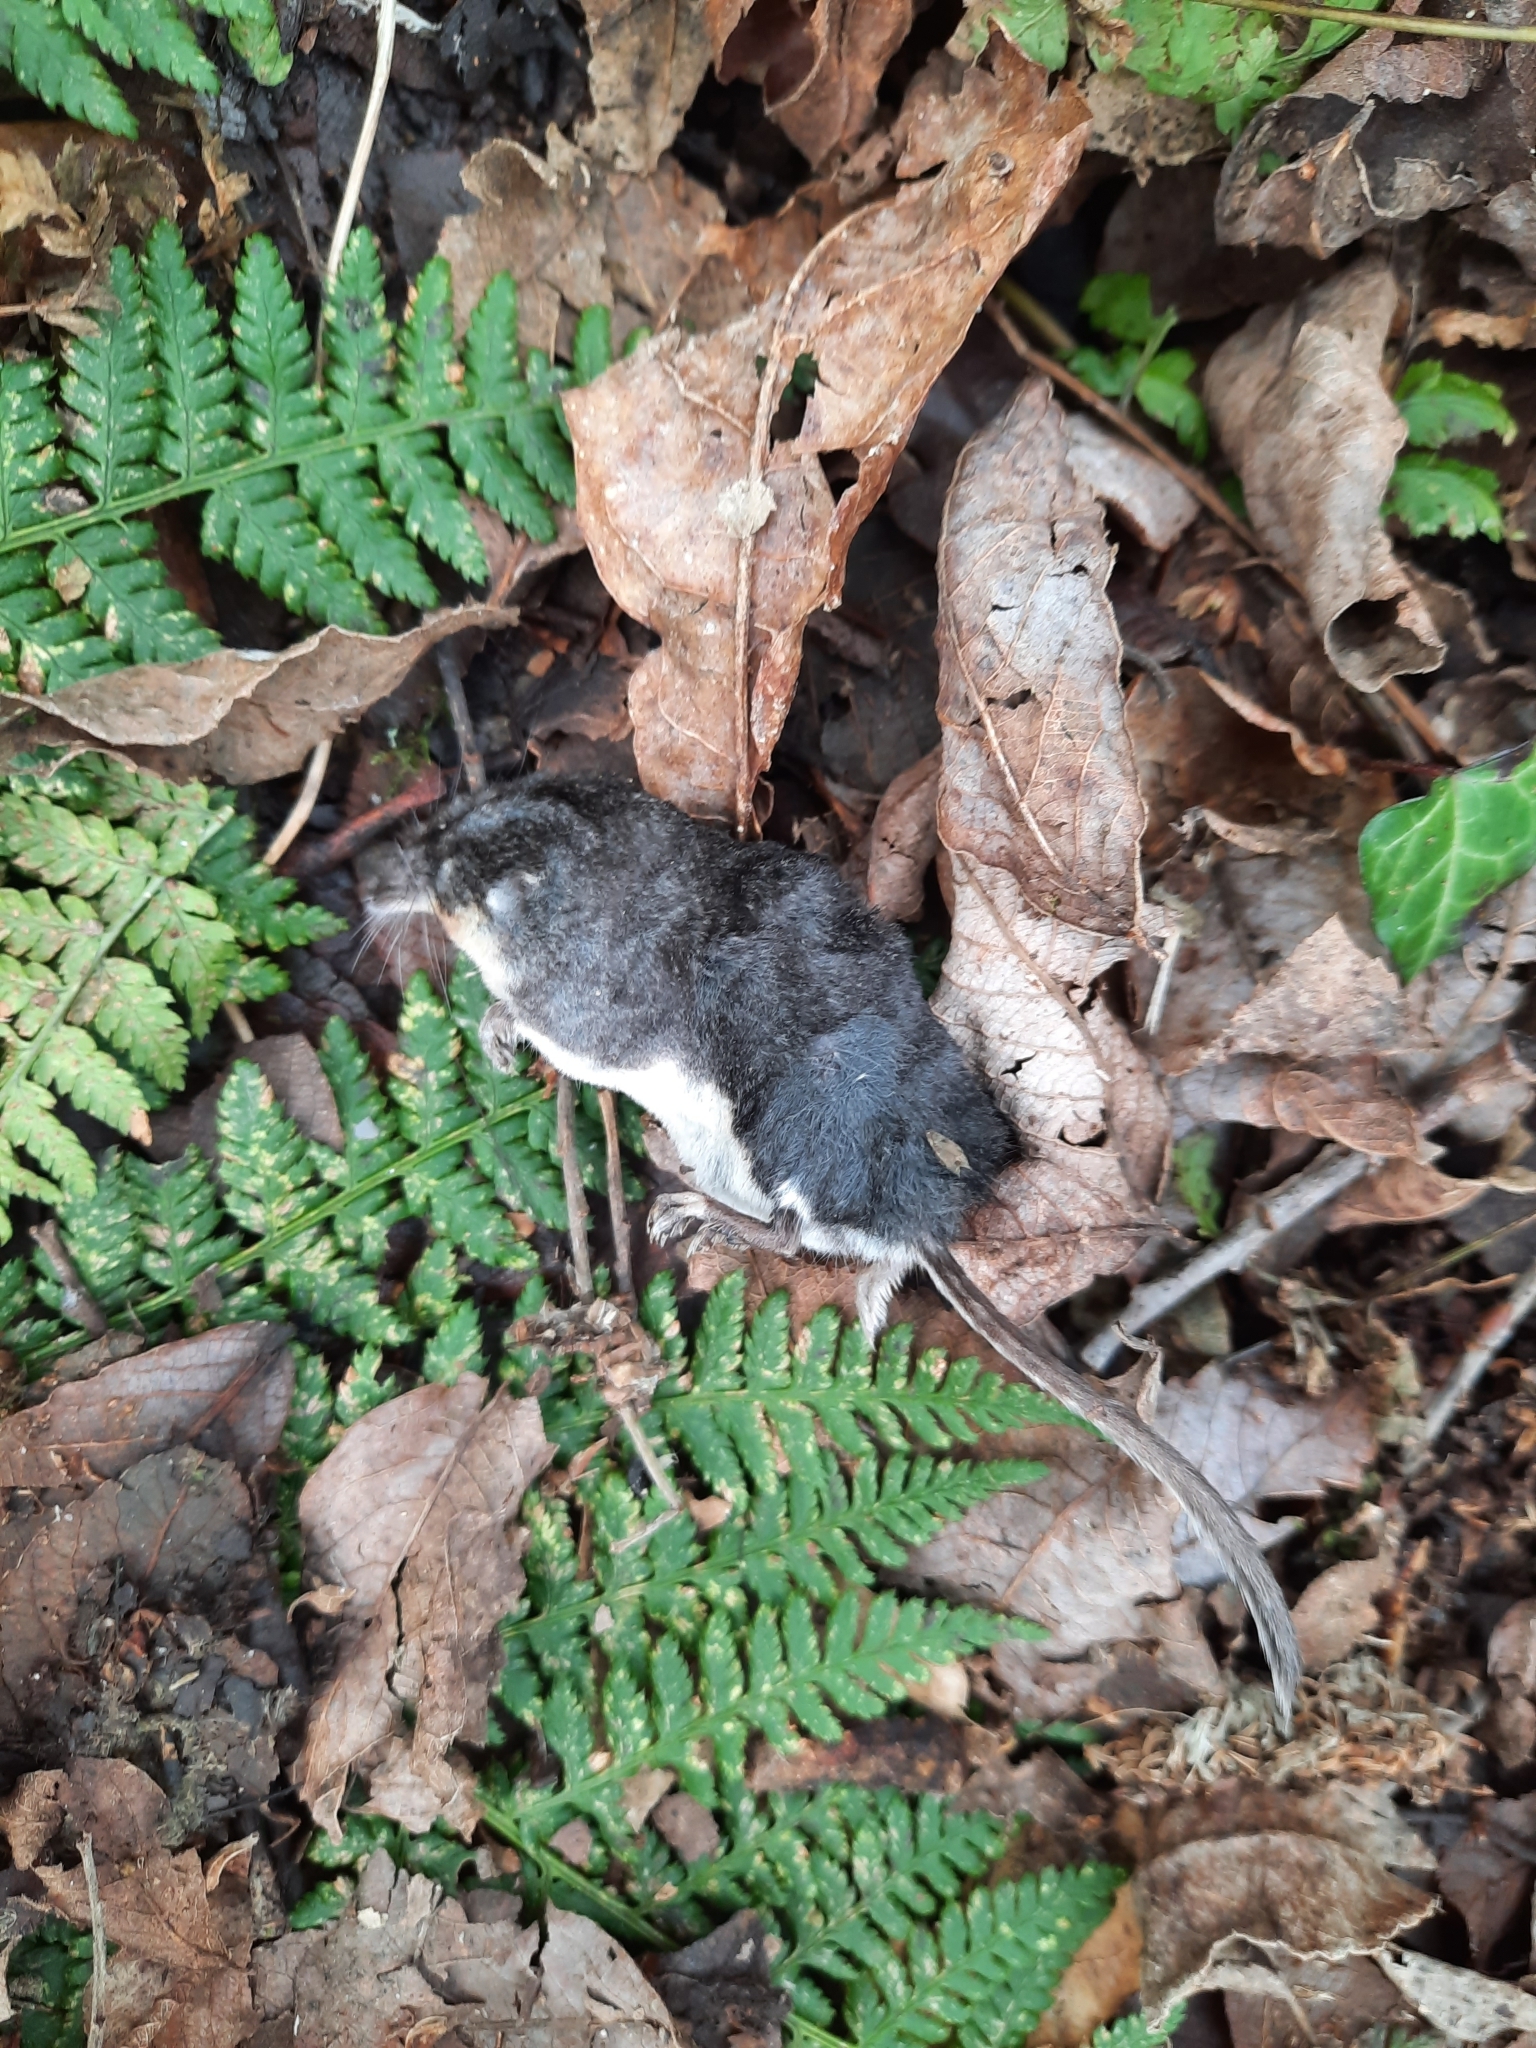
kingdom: Animalia
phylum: Chordata
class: Mammalia
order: Soricomorpha
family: Soricidae
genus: Neomys
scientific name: Neomys fodiens
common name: Eurasian water shrew
